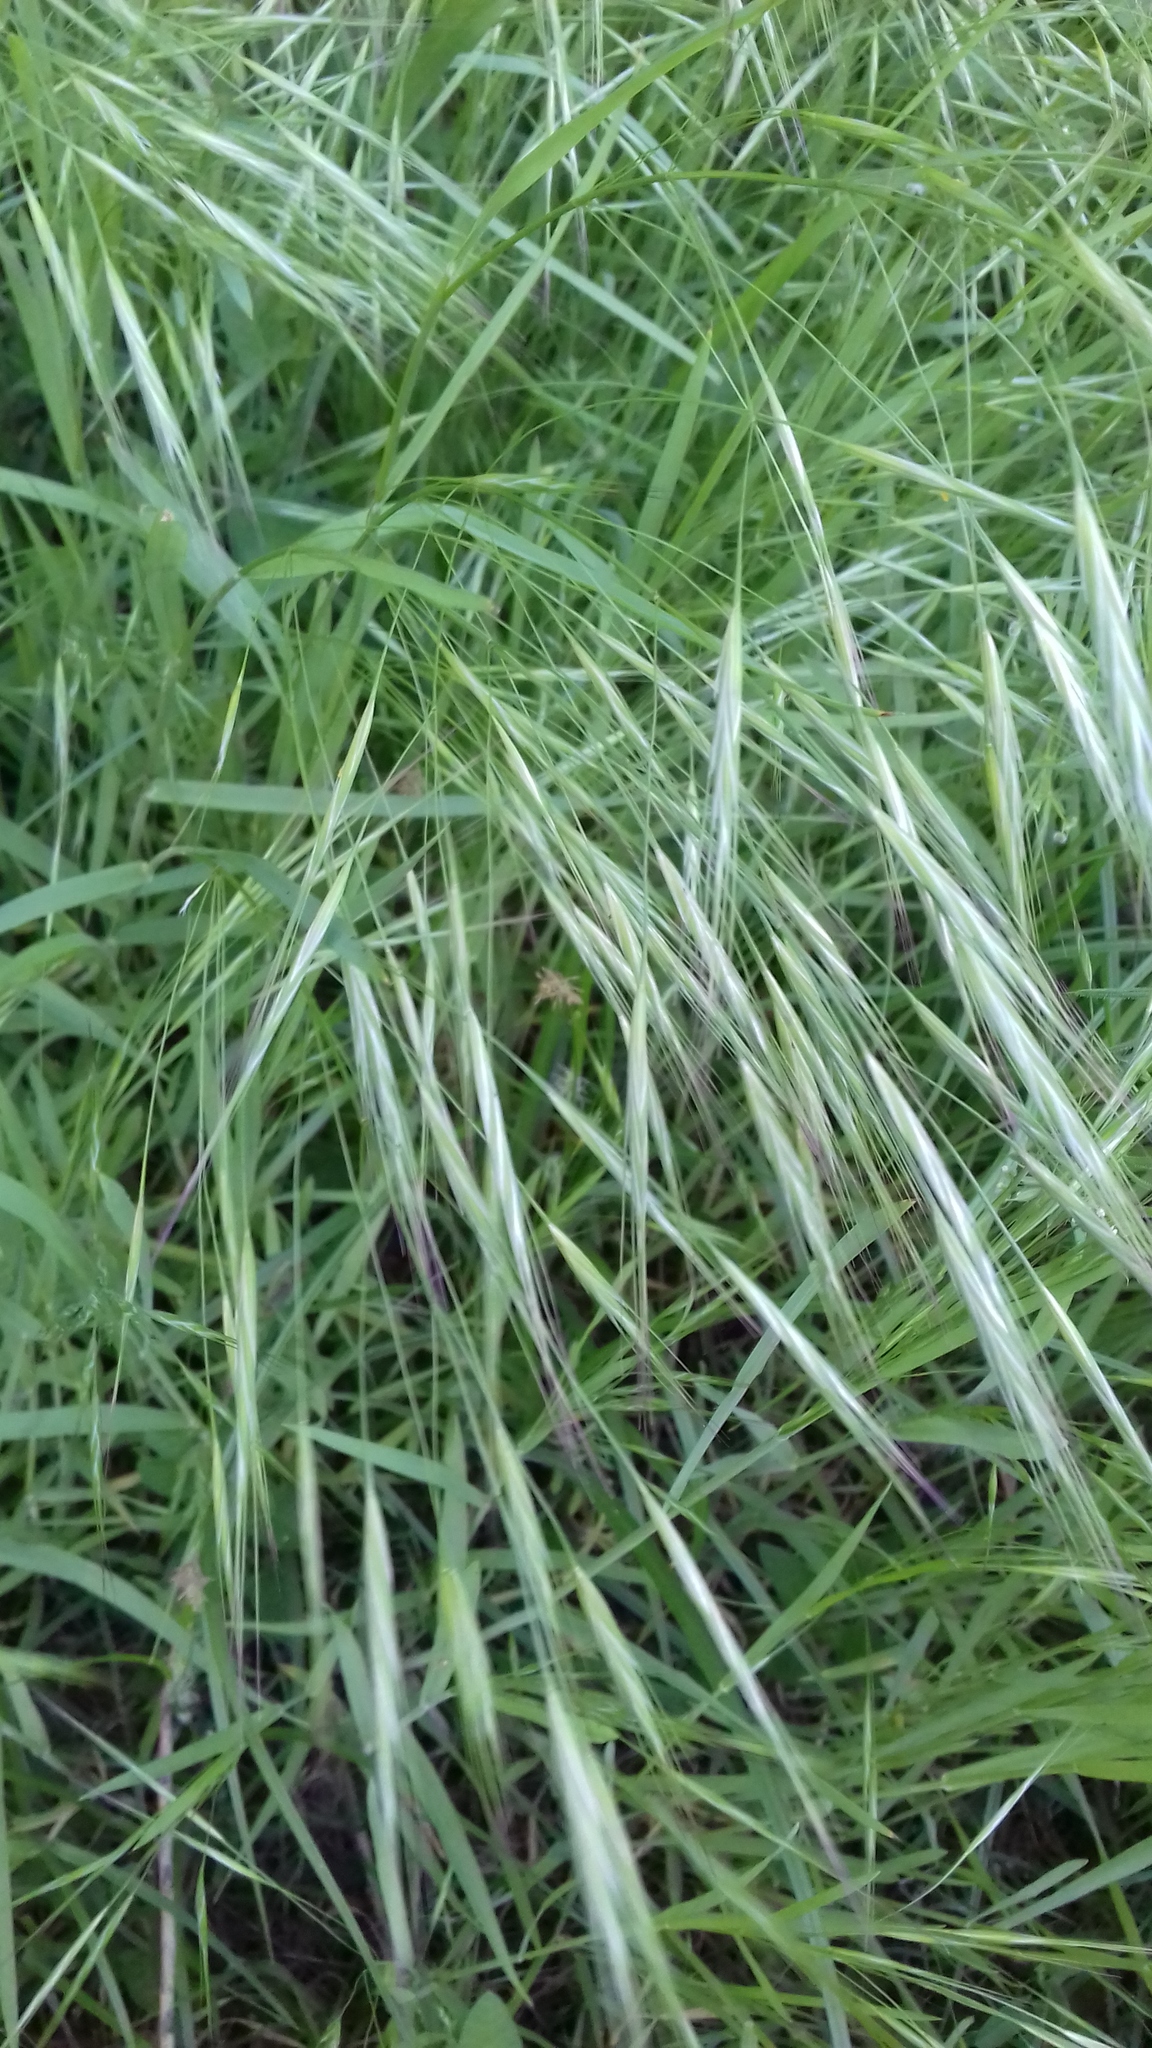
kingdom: Plantae
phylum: Tracheophyta
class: Liliopsida
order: Poales
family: Poaceae
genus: Bromus
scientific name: Bromus sterilis
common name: Poverty brome
